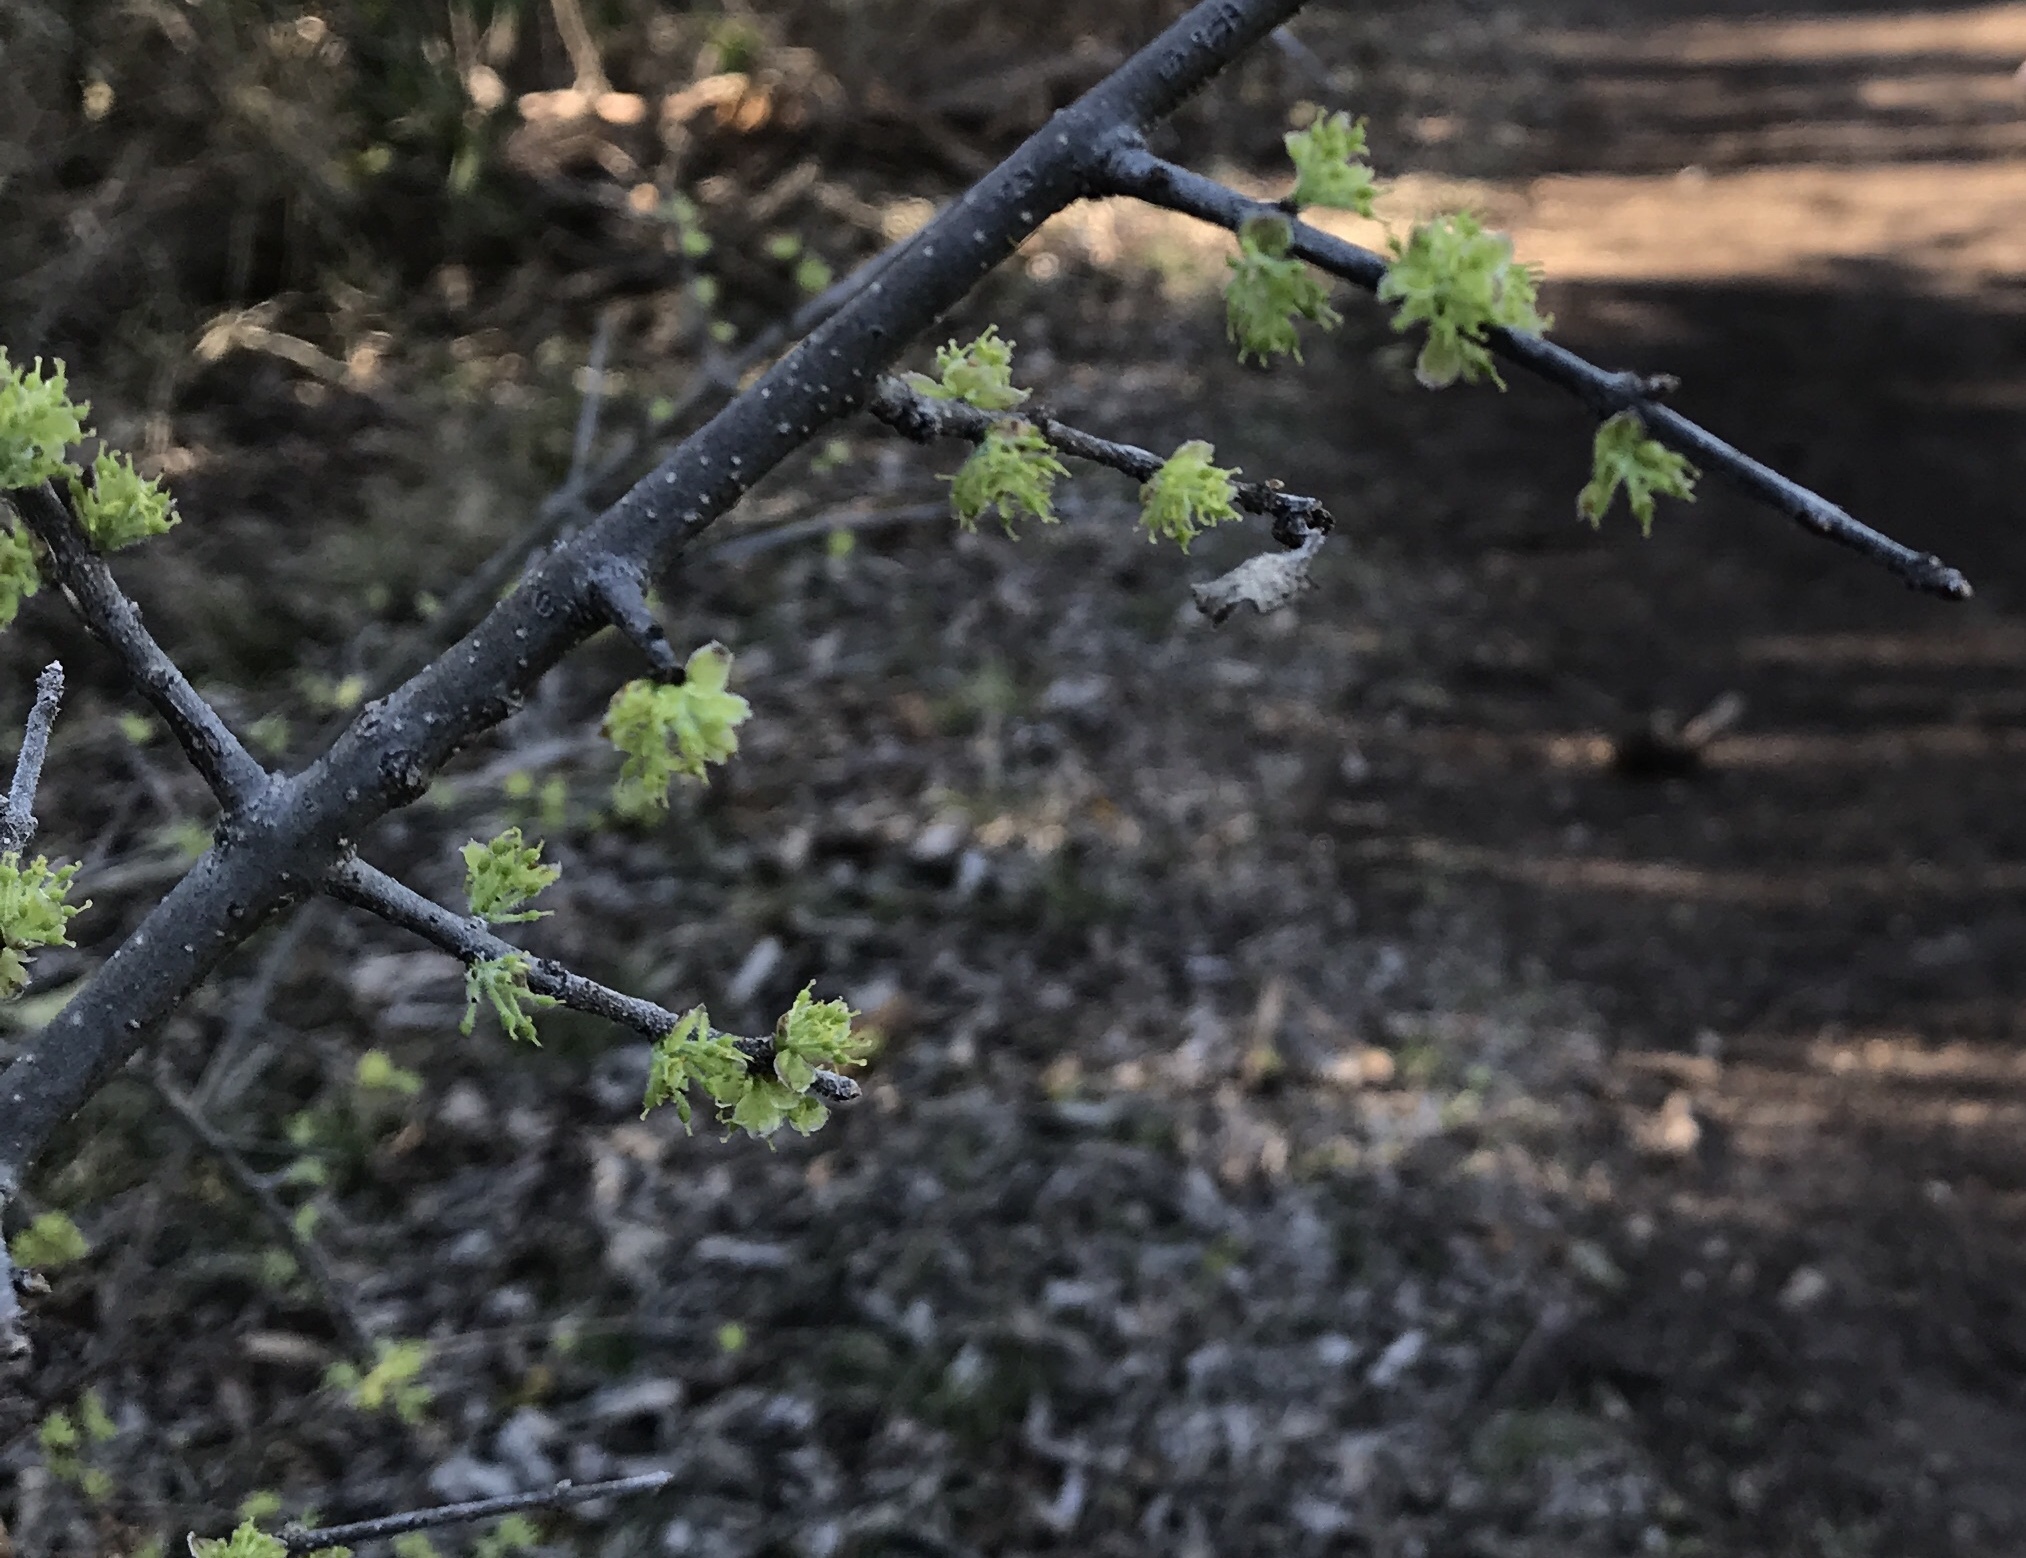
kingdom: Plantae
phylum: Tracheophyta
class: Magnoliopsida
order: Lamiales
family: Oleaceae
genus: Forestiera
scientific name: Forestiera pubescens
